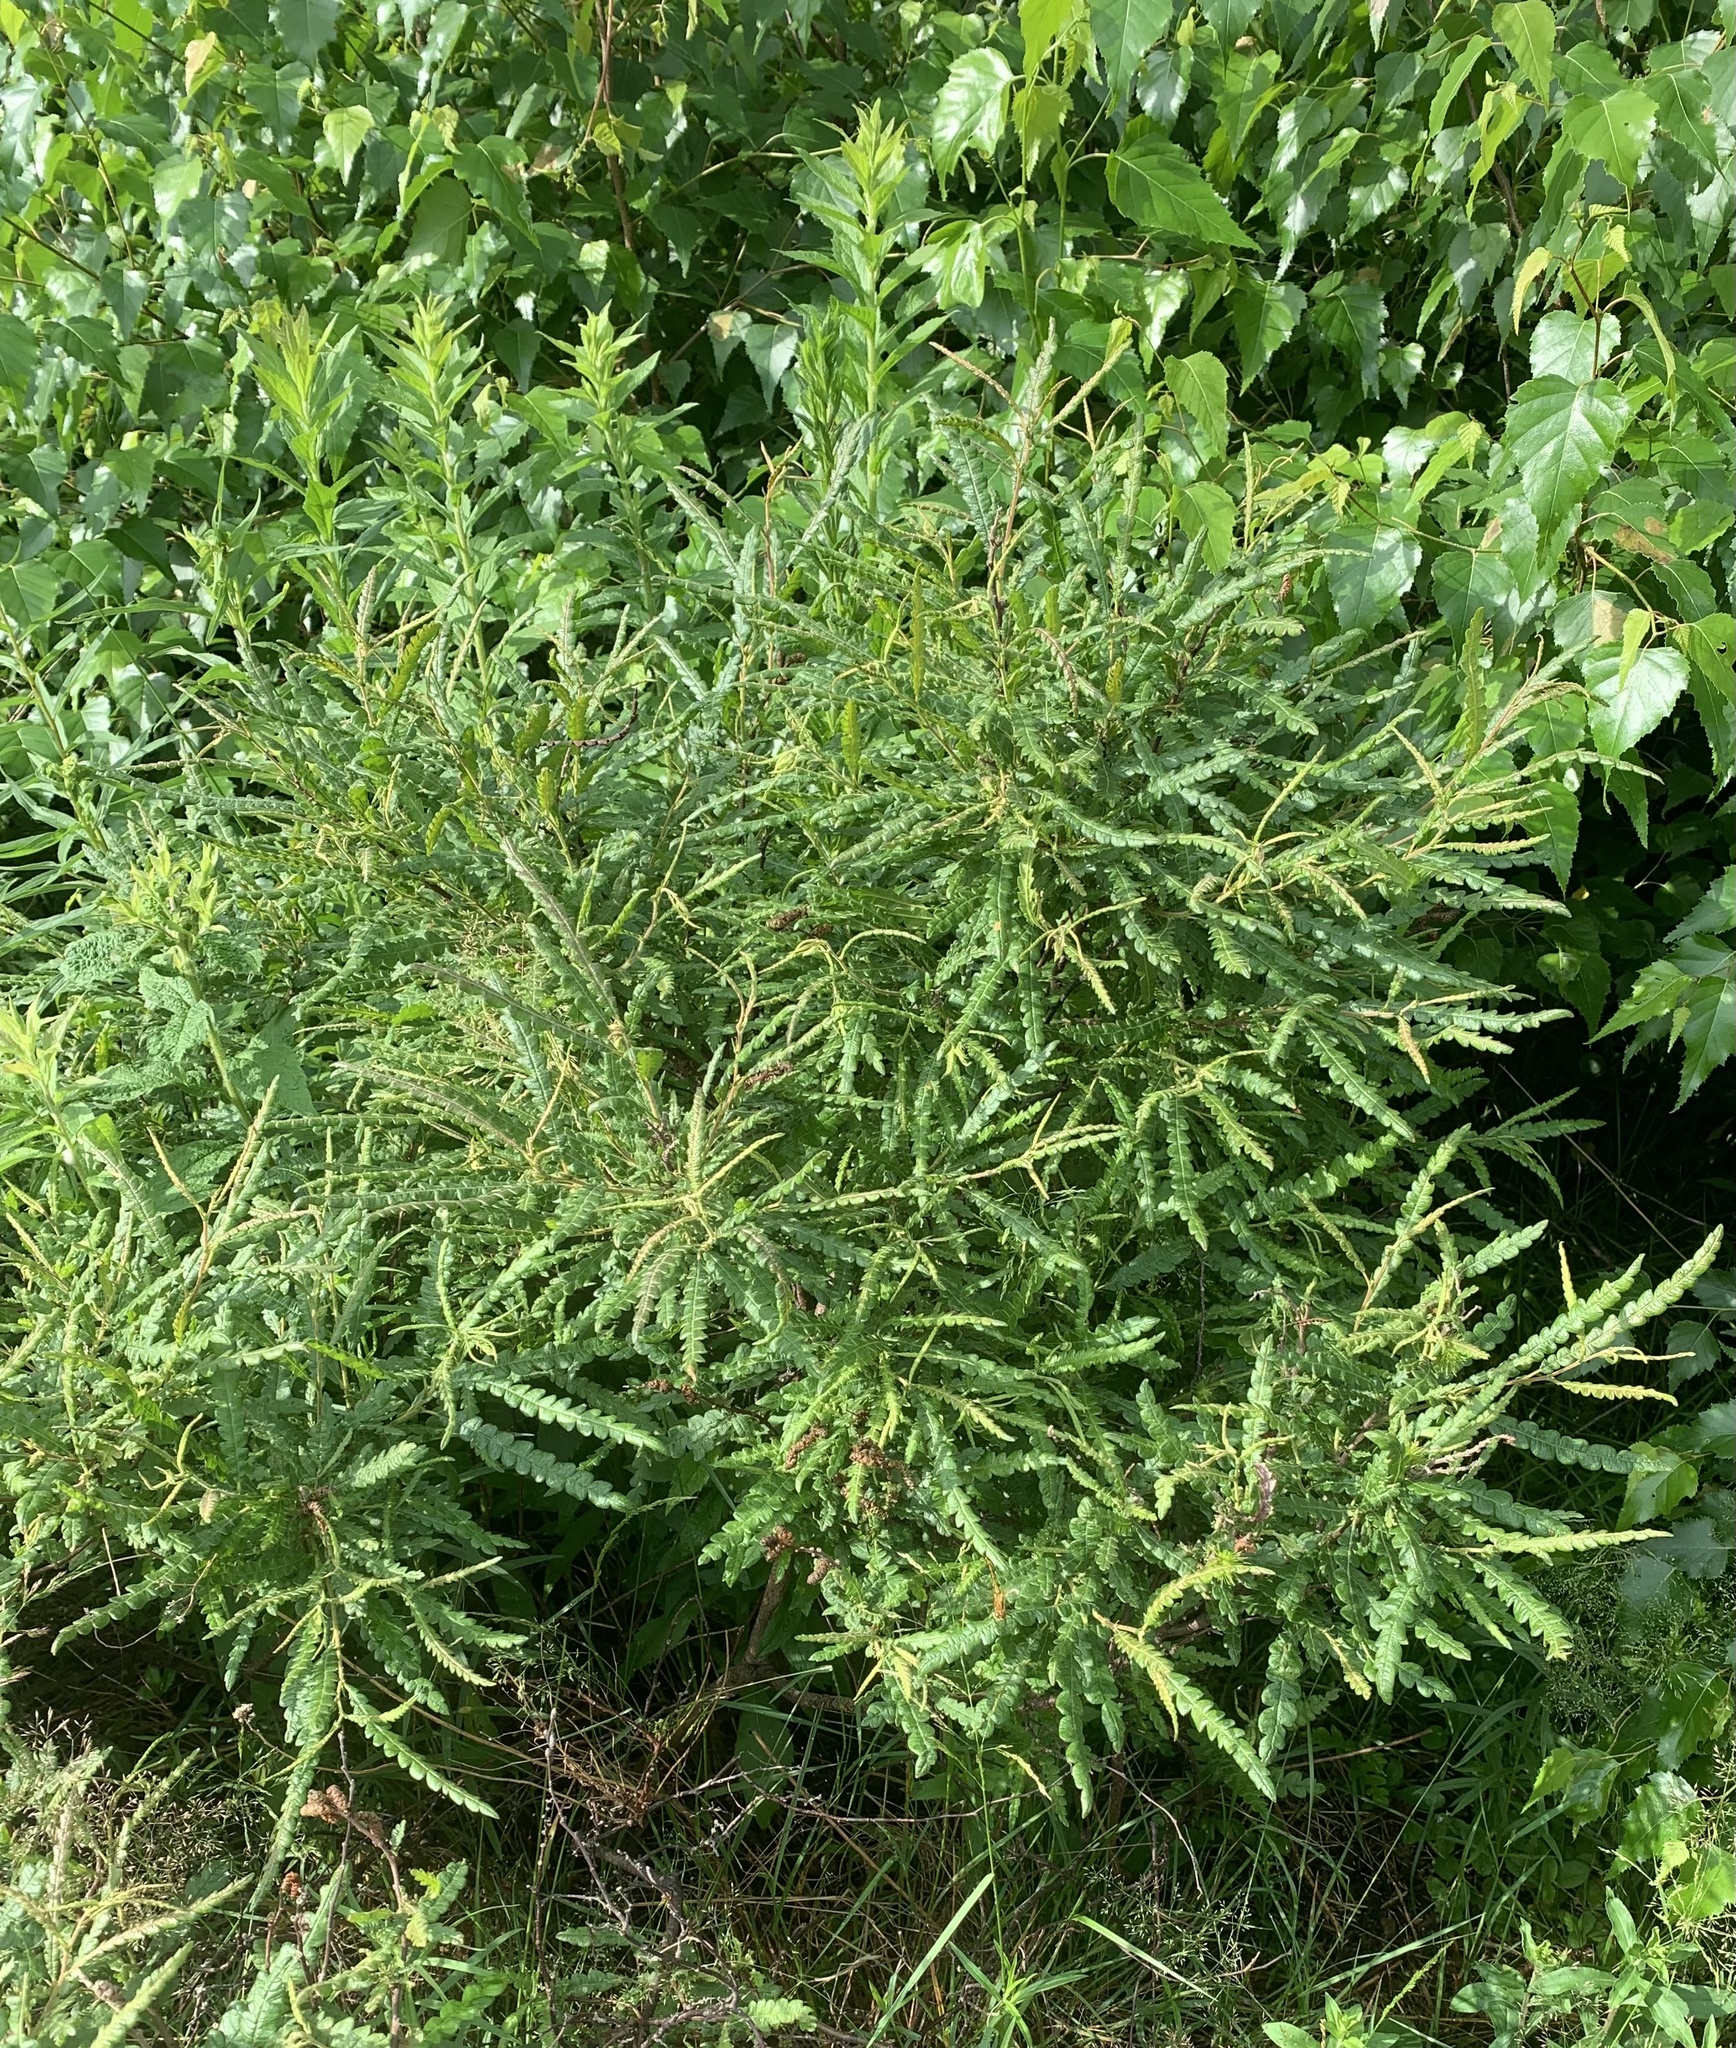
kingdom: Plantae
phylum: Tracheophyta
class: Magnoliopsida
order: Fagales
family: Myricaceae
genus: Comptonia
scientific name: Comptonia peregrina
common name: Sweet-fern
